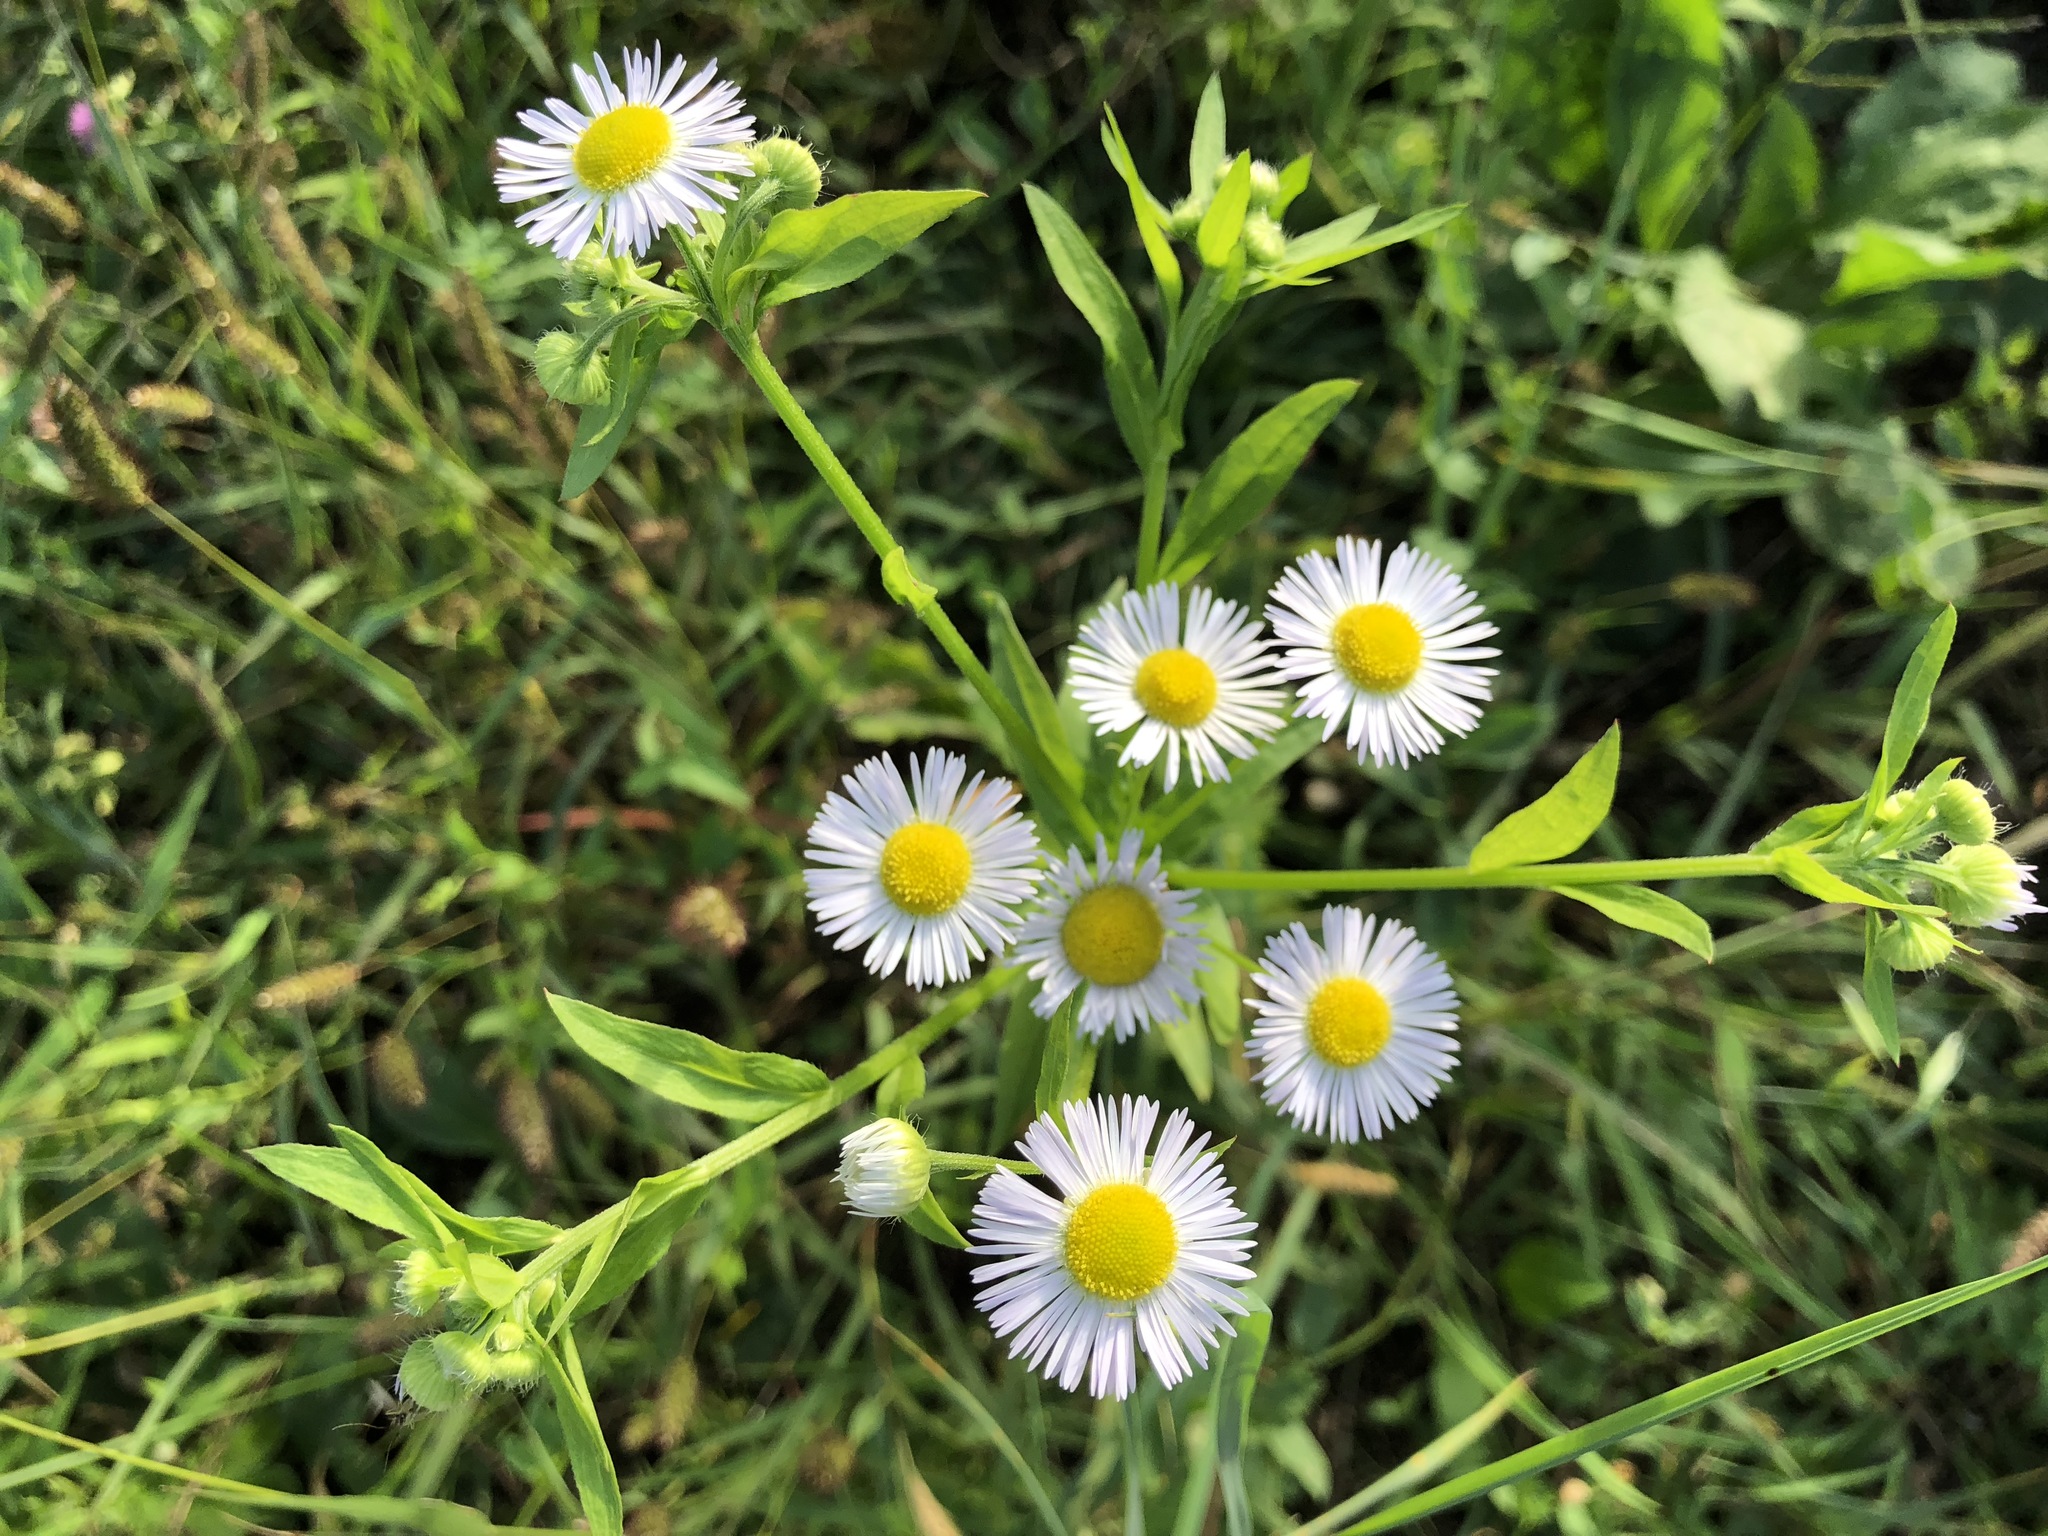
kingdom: Plantae
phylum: Tracheophyta
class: Magnoliopsida
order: Asterales
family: Asteraceae
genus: Erigeron
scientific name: Erigeron annuus
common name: Tall fleabane
